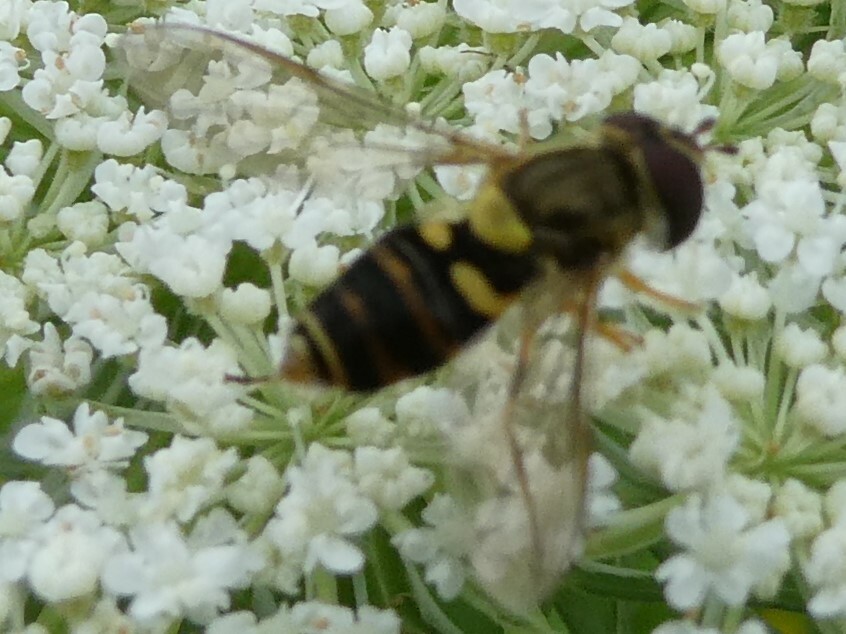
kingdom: Animalia
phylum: Arthropoda
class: Insecta
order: Diptera
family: Syrphidae
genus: Syrphus
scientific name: Syrphus rectus
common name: Yellow-legged flower fly
